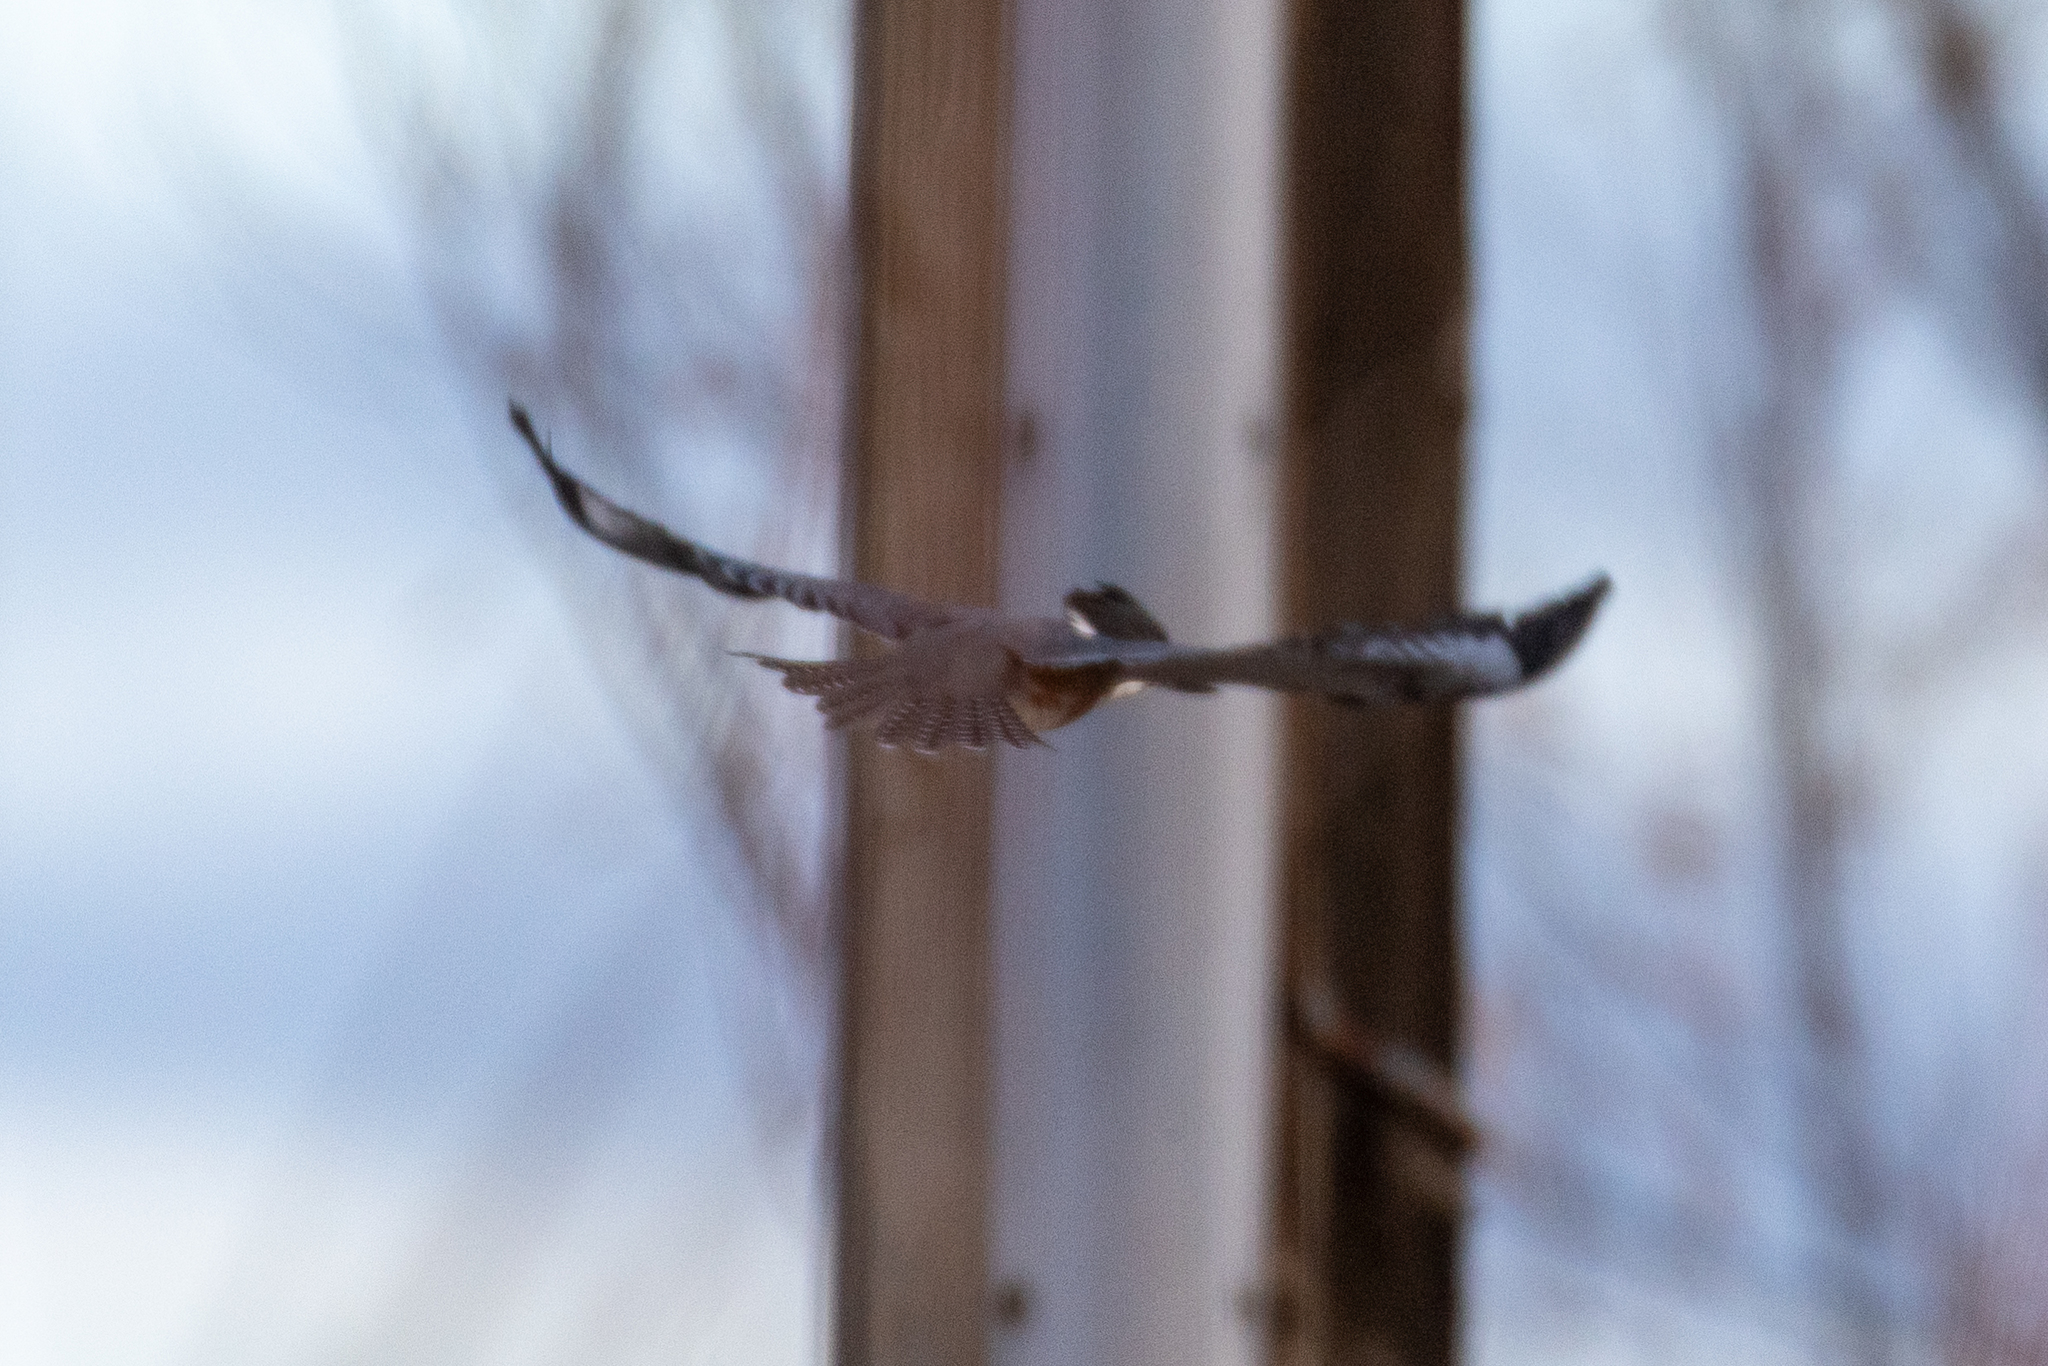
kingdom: Animalia
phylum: Chordata
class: Aves
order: Coraciiformes
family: Alcedinidae
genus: Megaceryle
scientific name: Megaceryle alcyon
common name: Belted kingfisher
